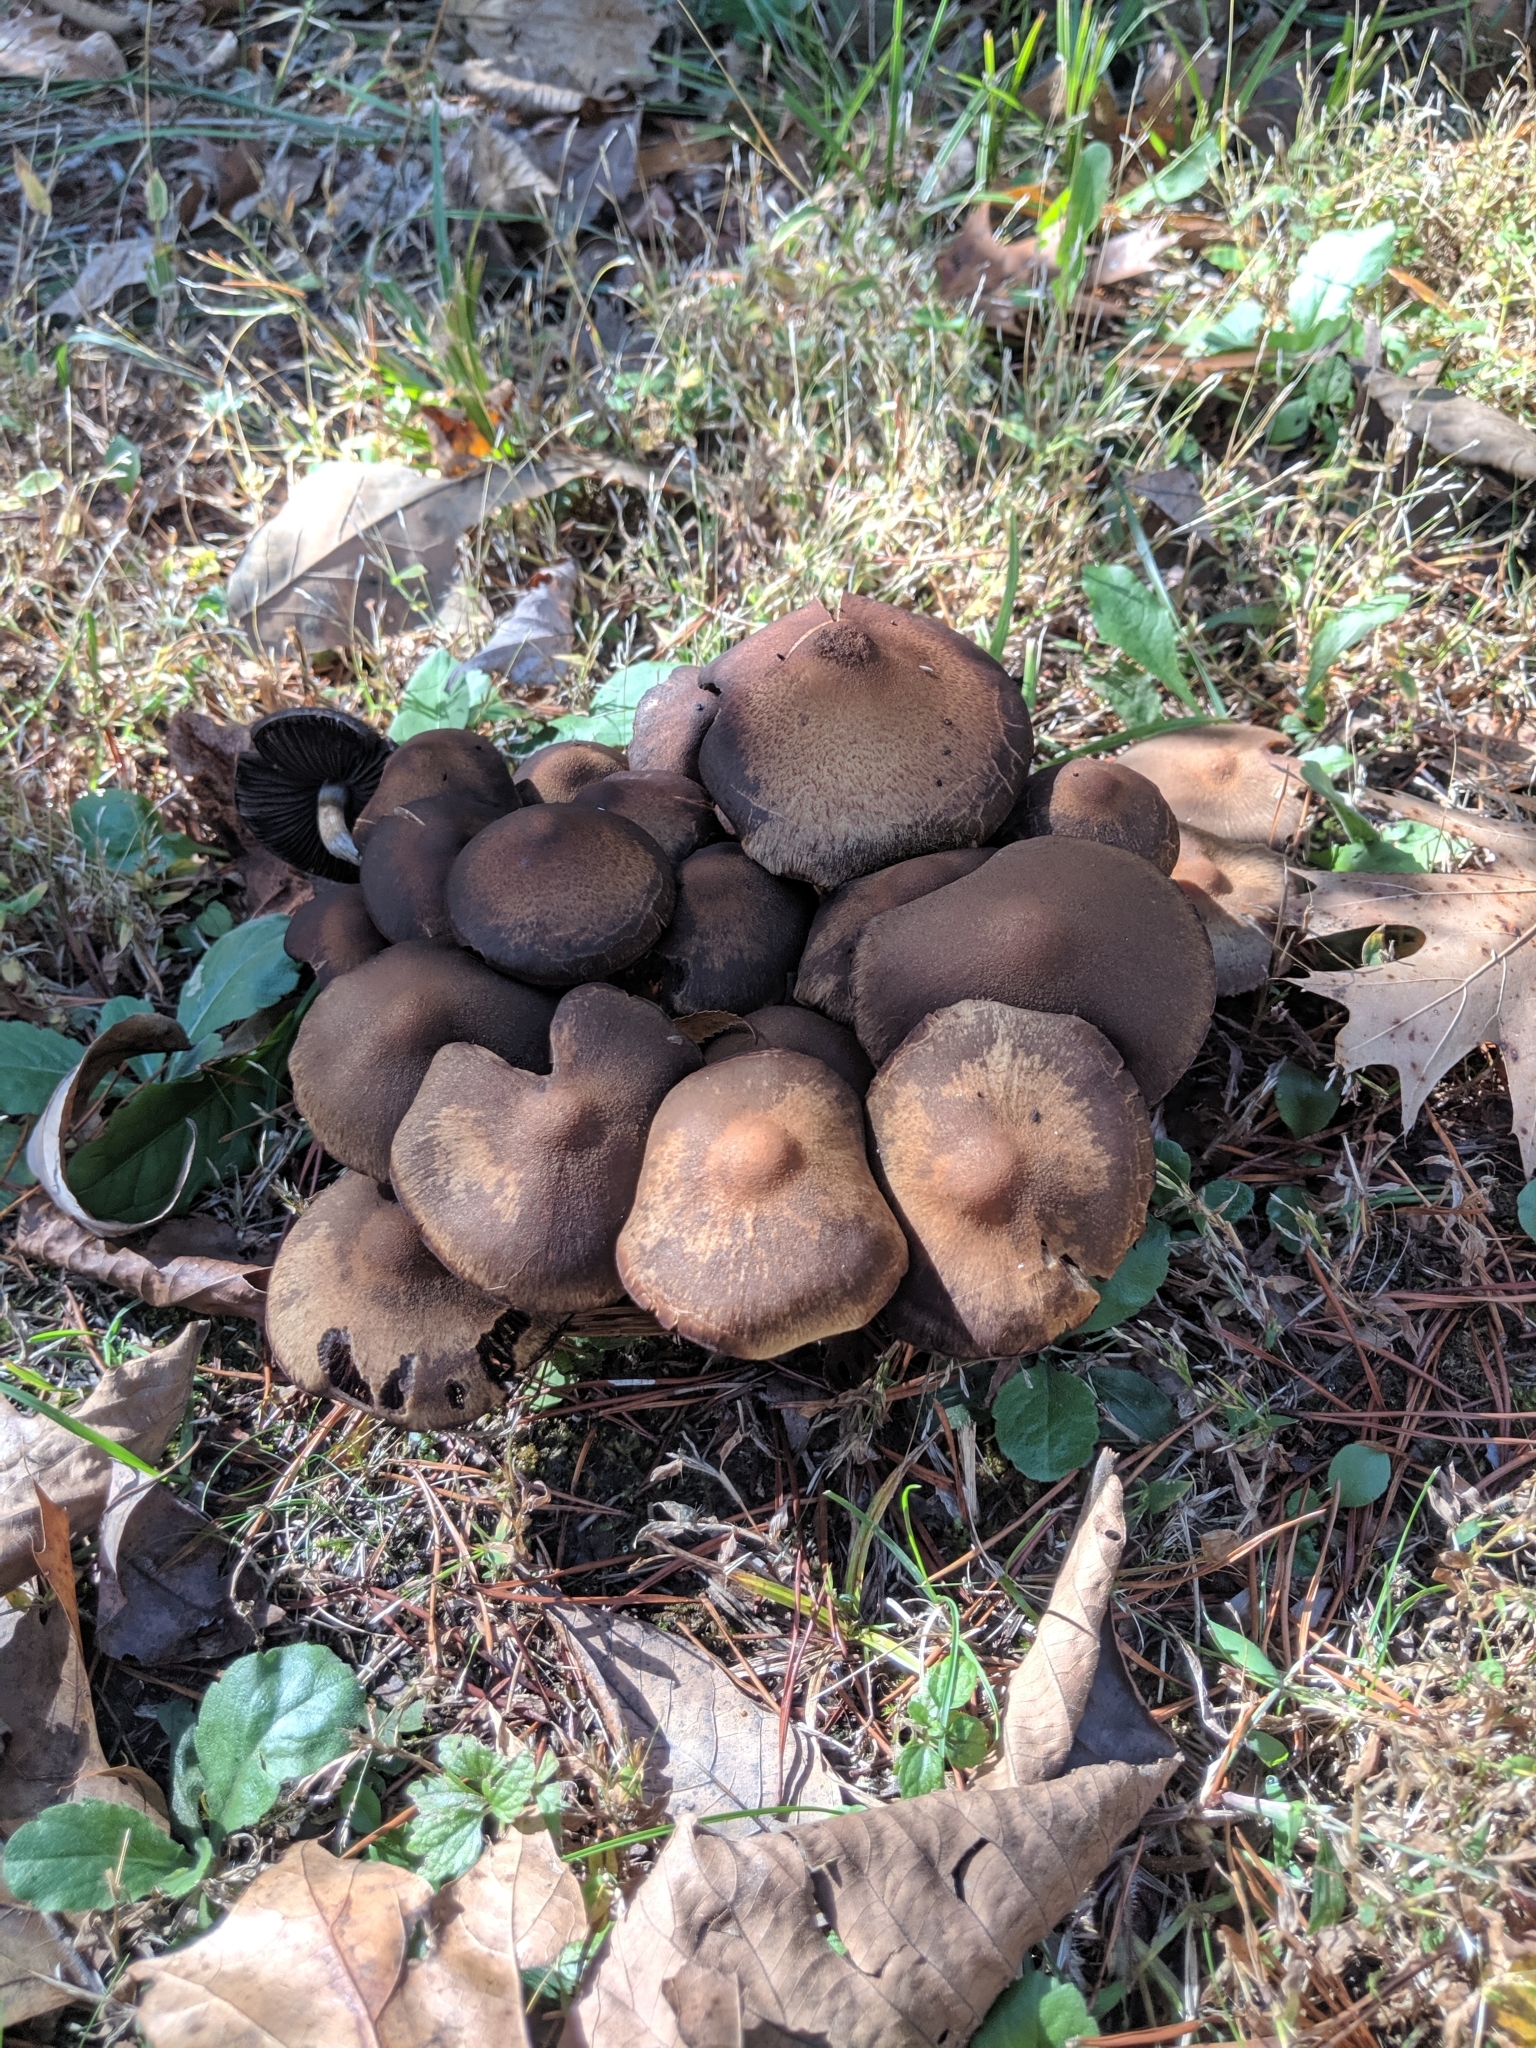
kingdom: Fungi
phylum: Basidiomycota
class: Agaricomycetes
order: Agaricales
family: Psathyrellaceae
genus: Lacrymaria
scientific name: Lacrymaria lacrymabunda
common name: Weeping widow
